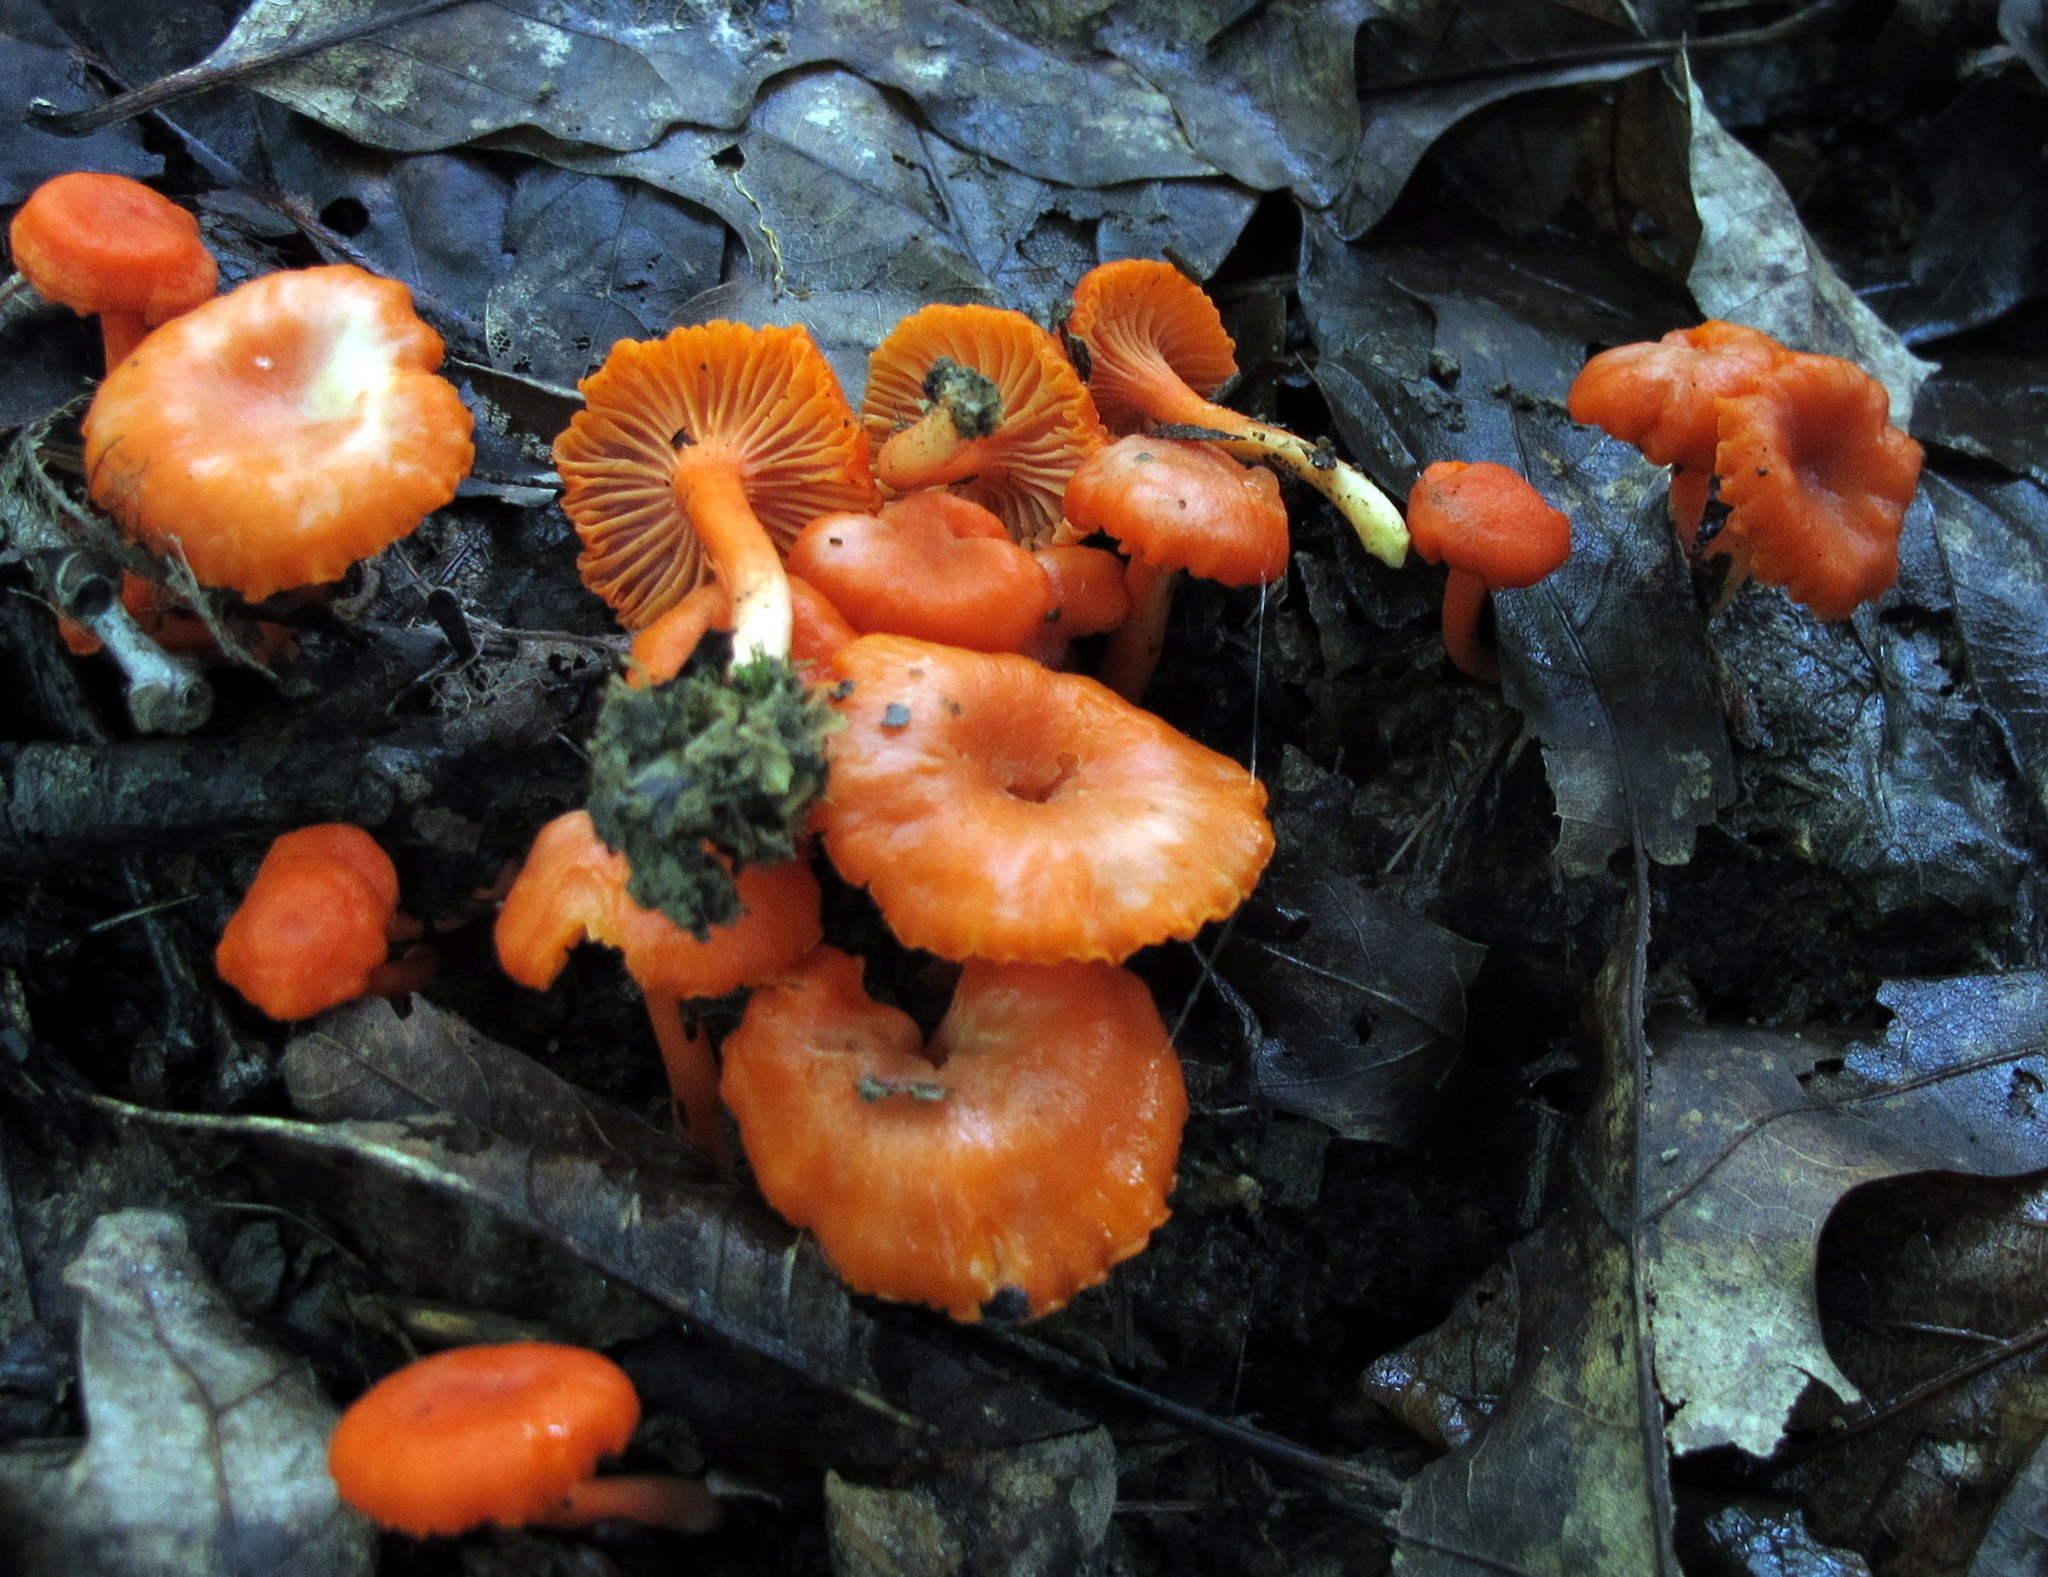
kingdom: Fungi
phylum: Basidiomycota
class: Agaricomycetes
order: Agaricales
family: Hygrophoraceae
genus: Hygrocybe
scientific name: Hygrocybe miniata
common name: Vermilion waxcap
